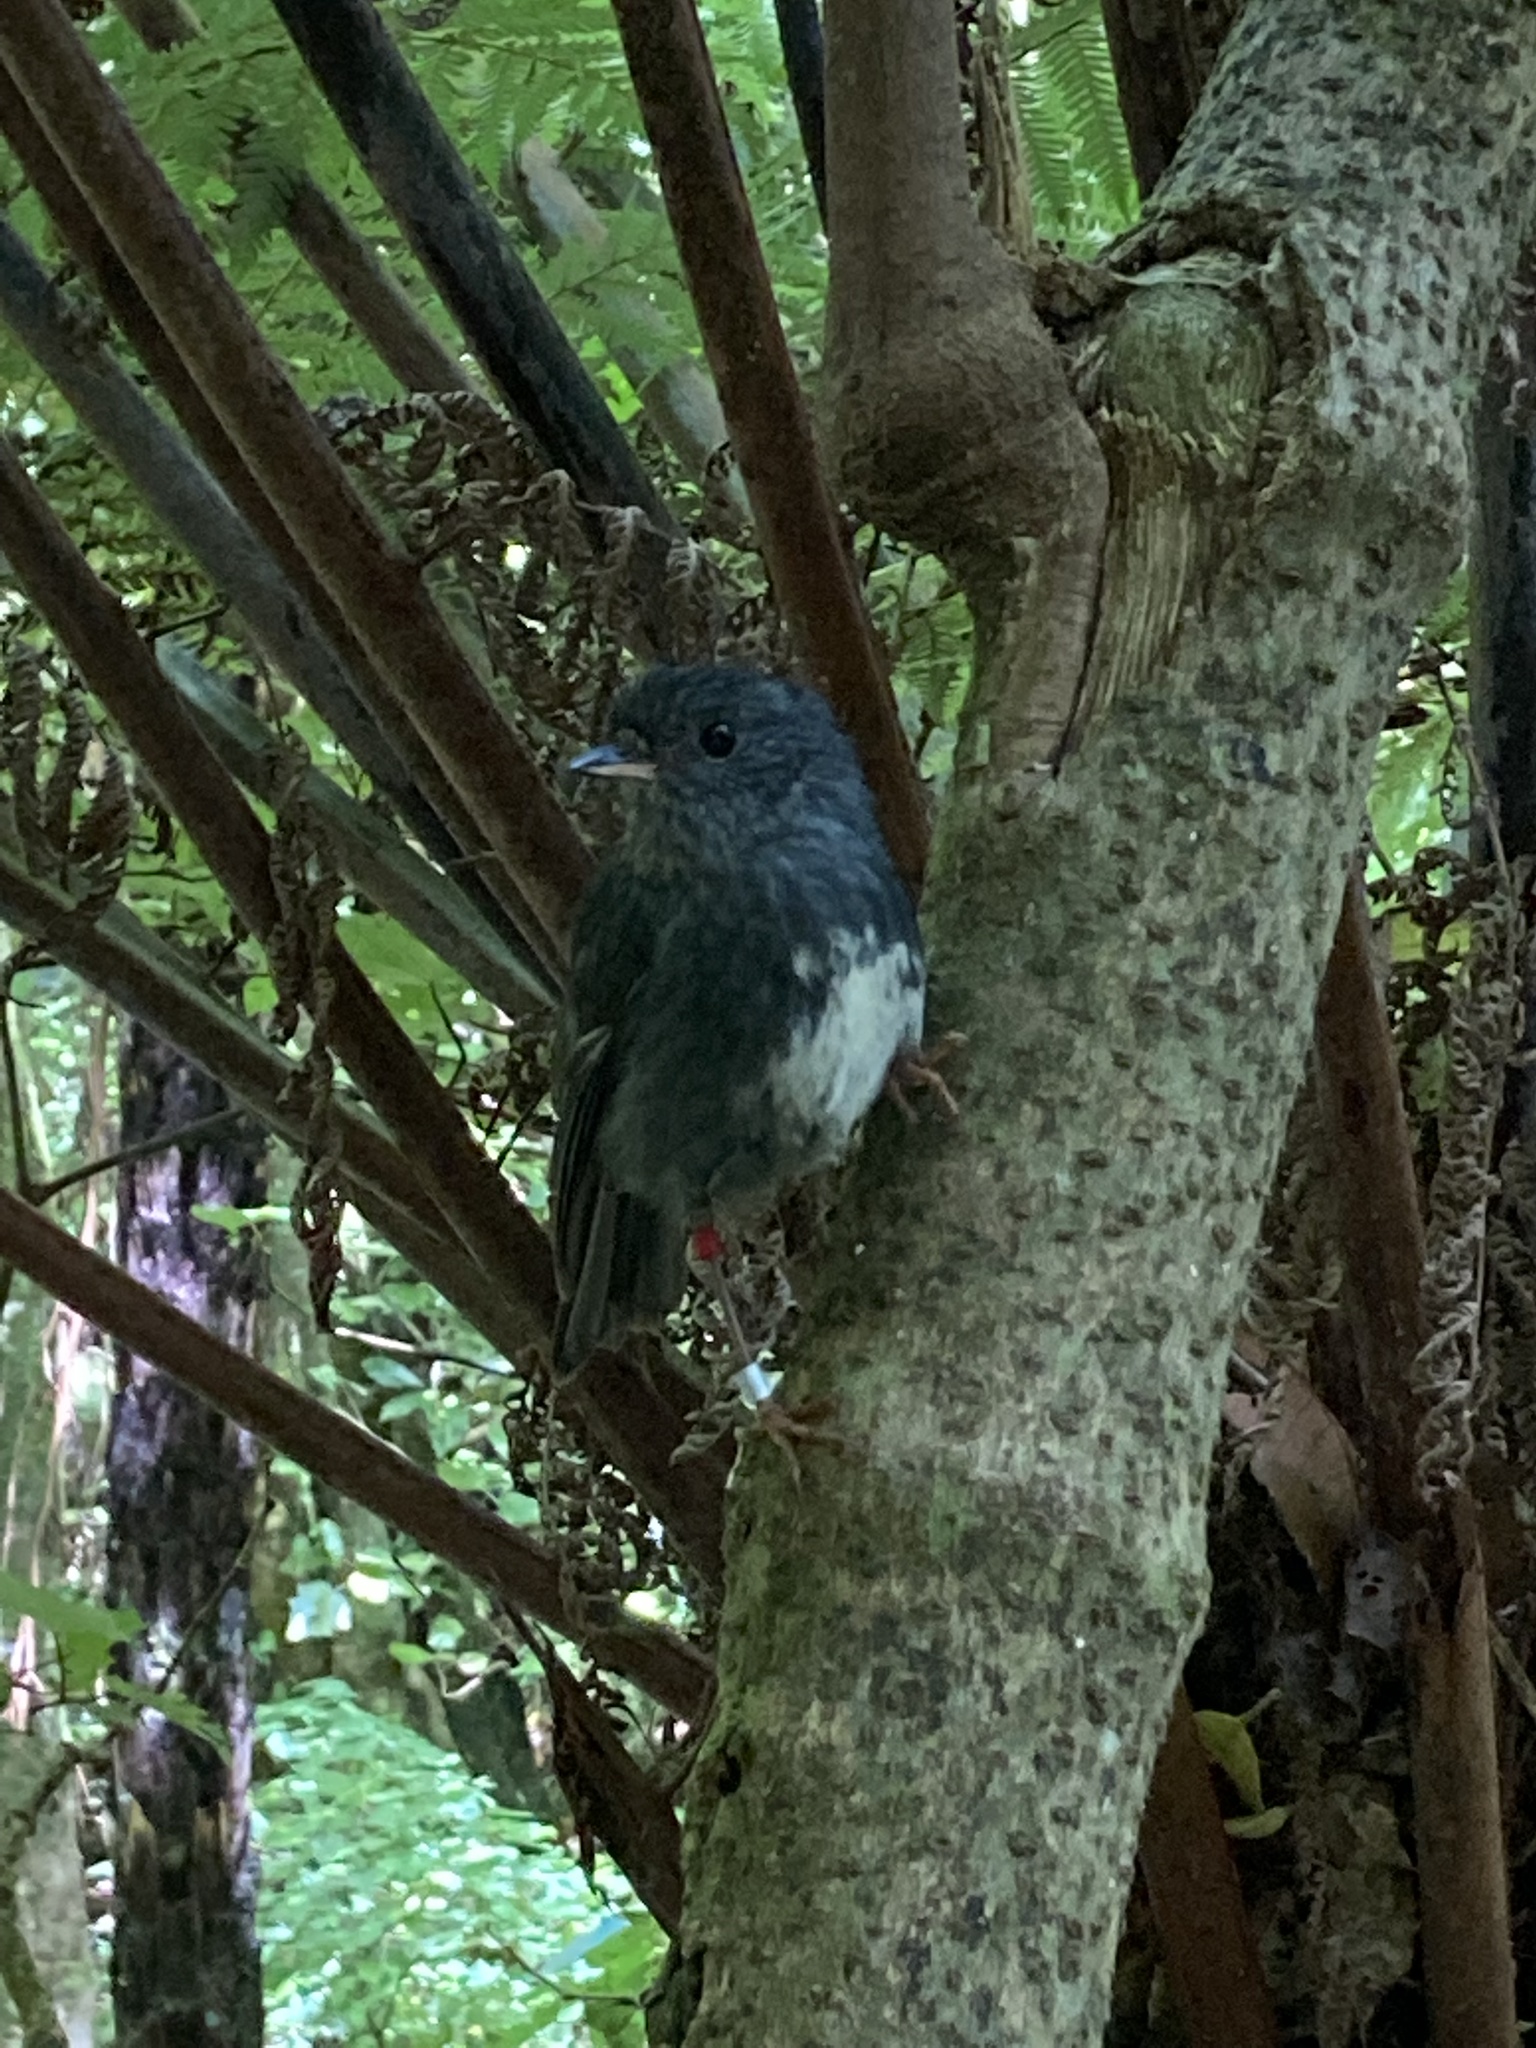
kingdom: Animalia
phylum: Chordata
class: Aves
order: Passeriformes
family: Petroicidae
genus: Petroica
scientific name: Petroica australis
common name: New zealand robin
